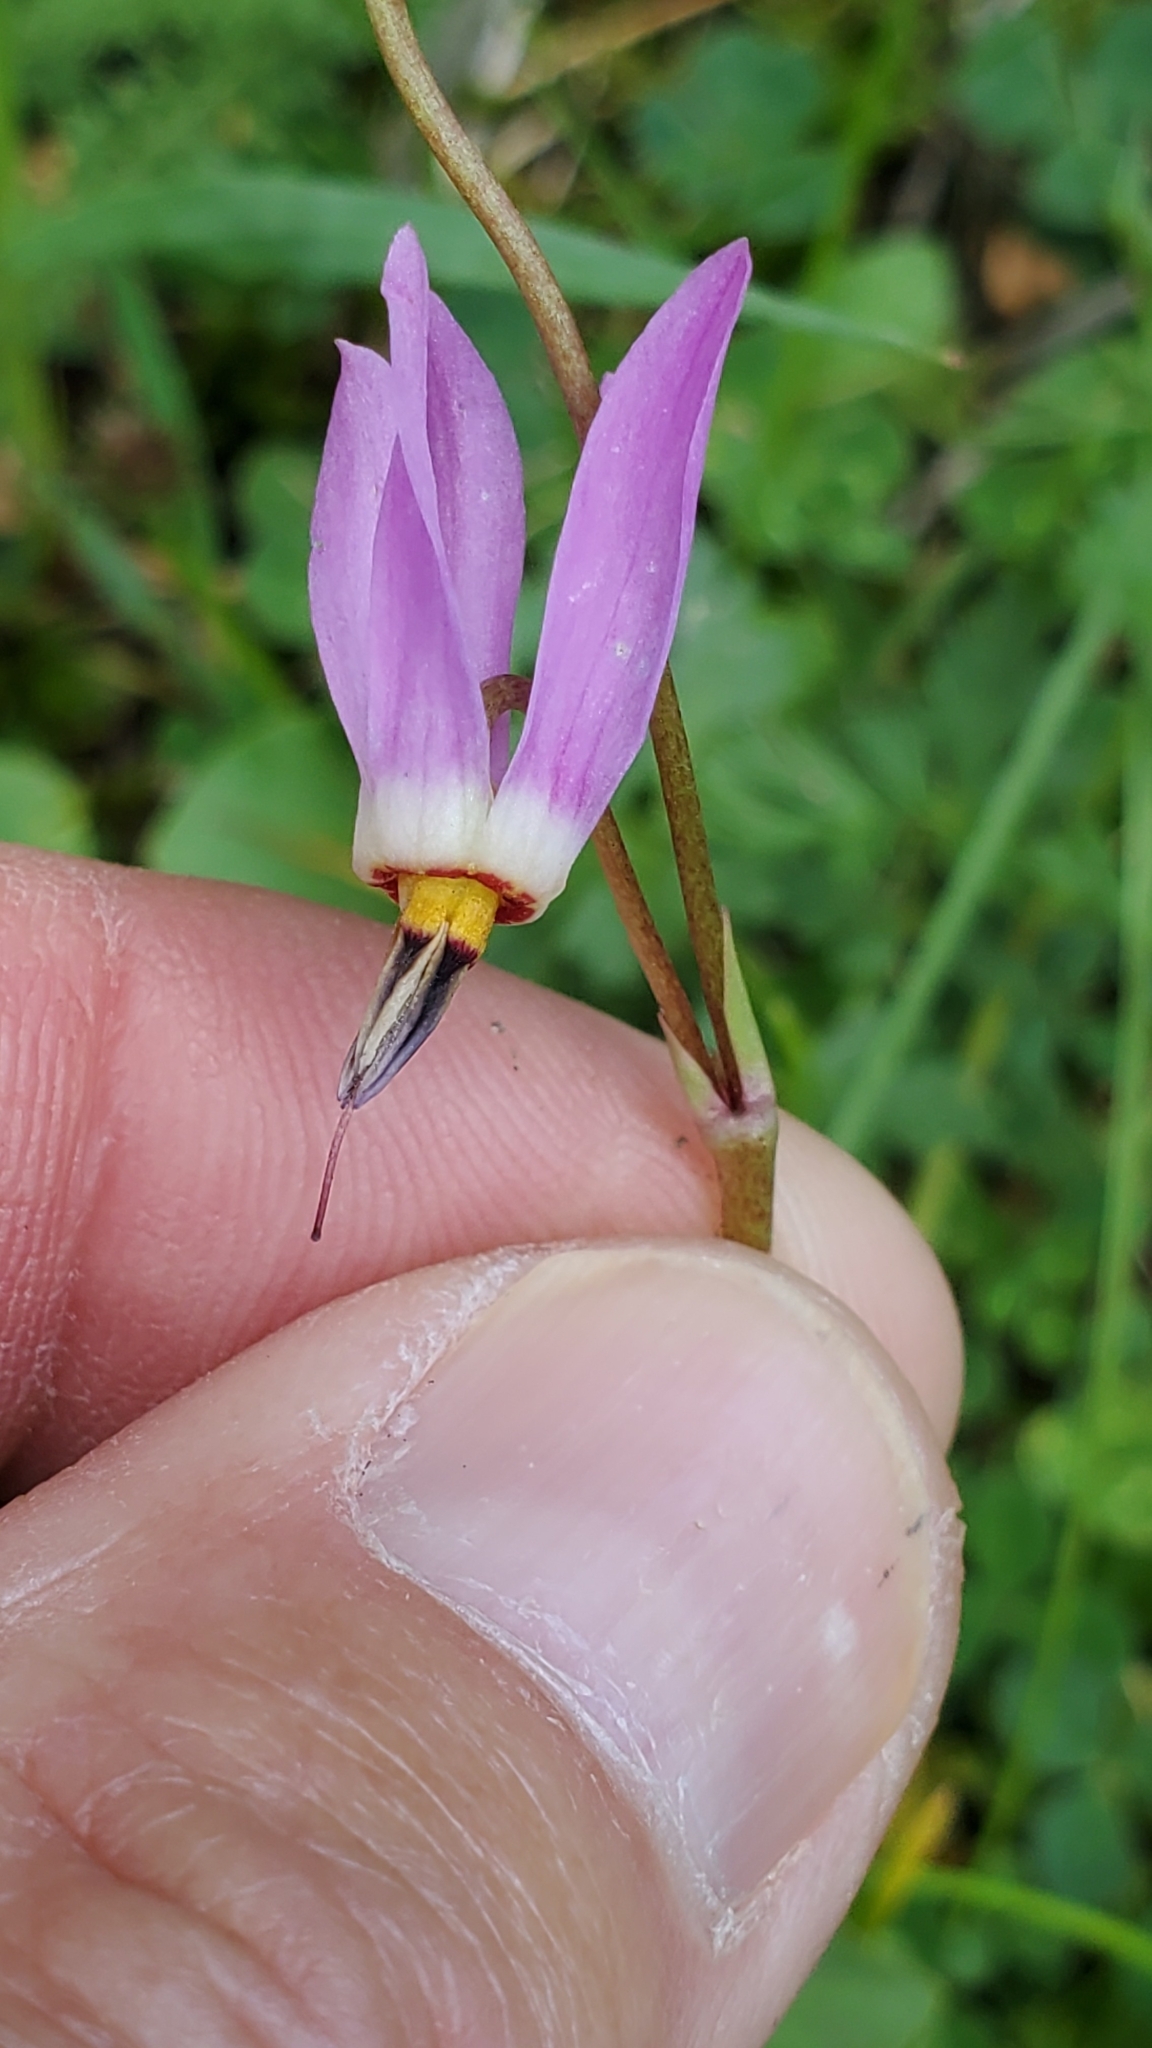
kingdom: Plantae
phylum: Tracheophyta
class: Magnoliopsida
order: Ericales
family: Primulaceae
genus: Dodecatheon
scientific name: Dodecatheon pulchellum
